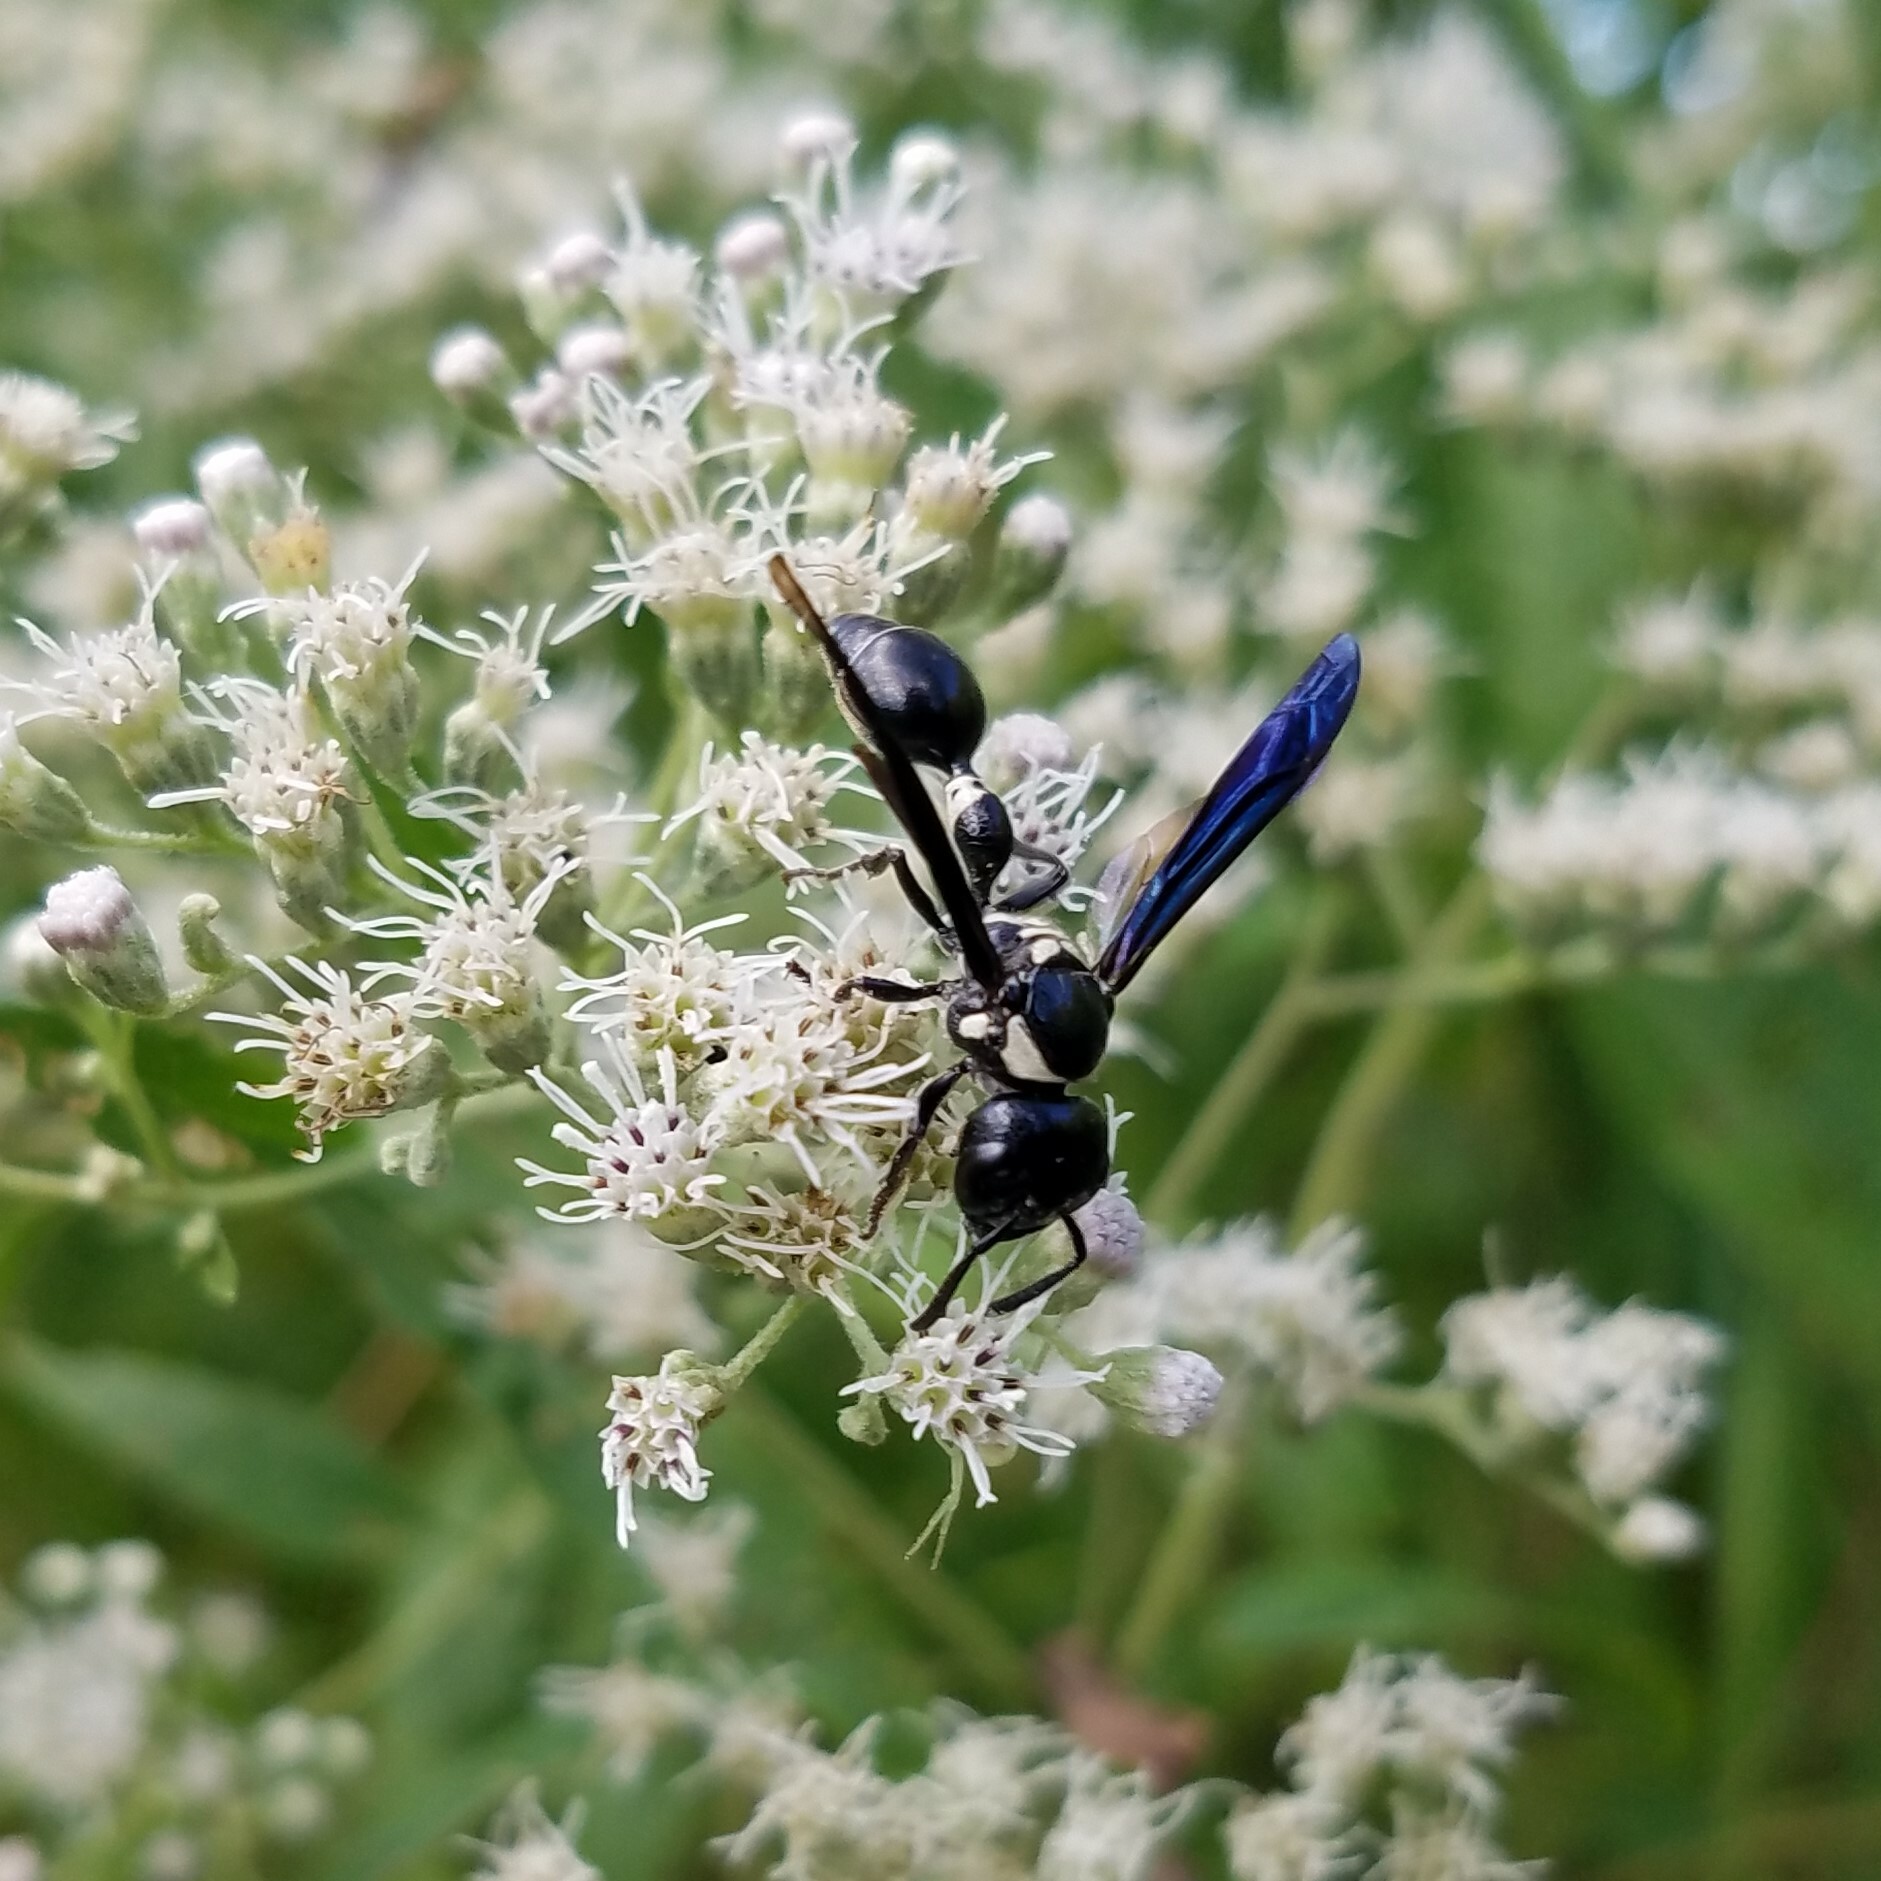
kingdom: Animalia
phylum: Arthropoda
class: Insecta
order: Hymenoptera
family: Eumenidae
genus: Zethus
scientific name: Zethus spinipes
